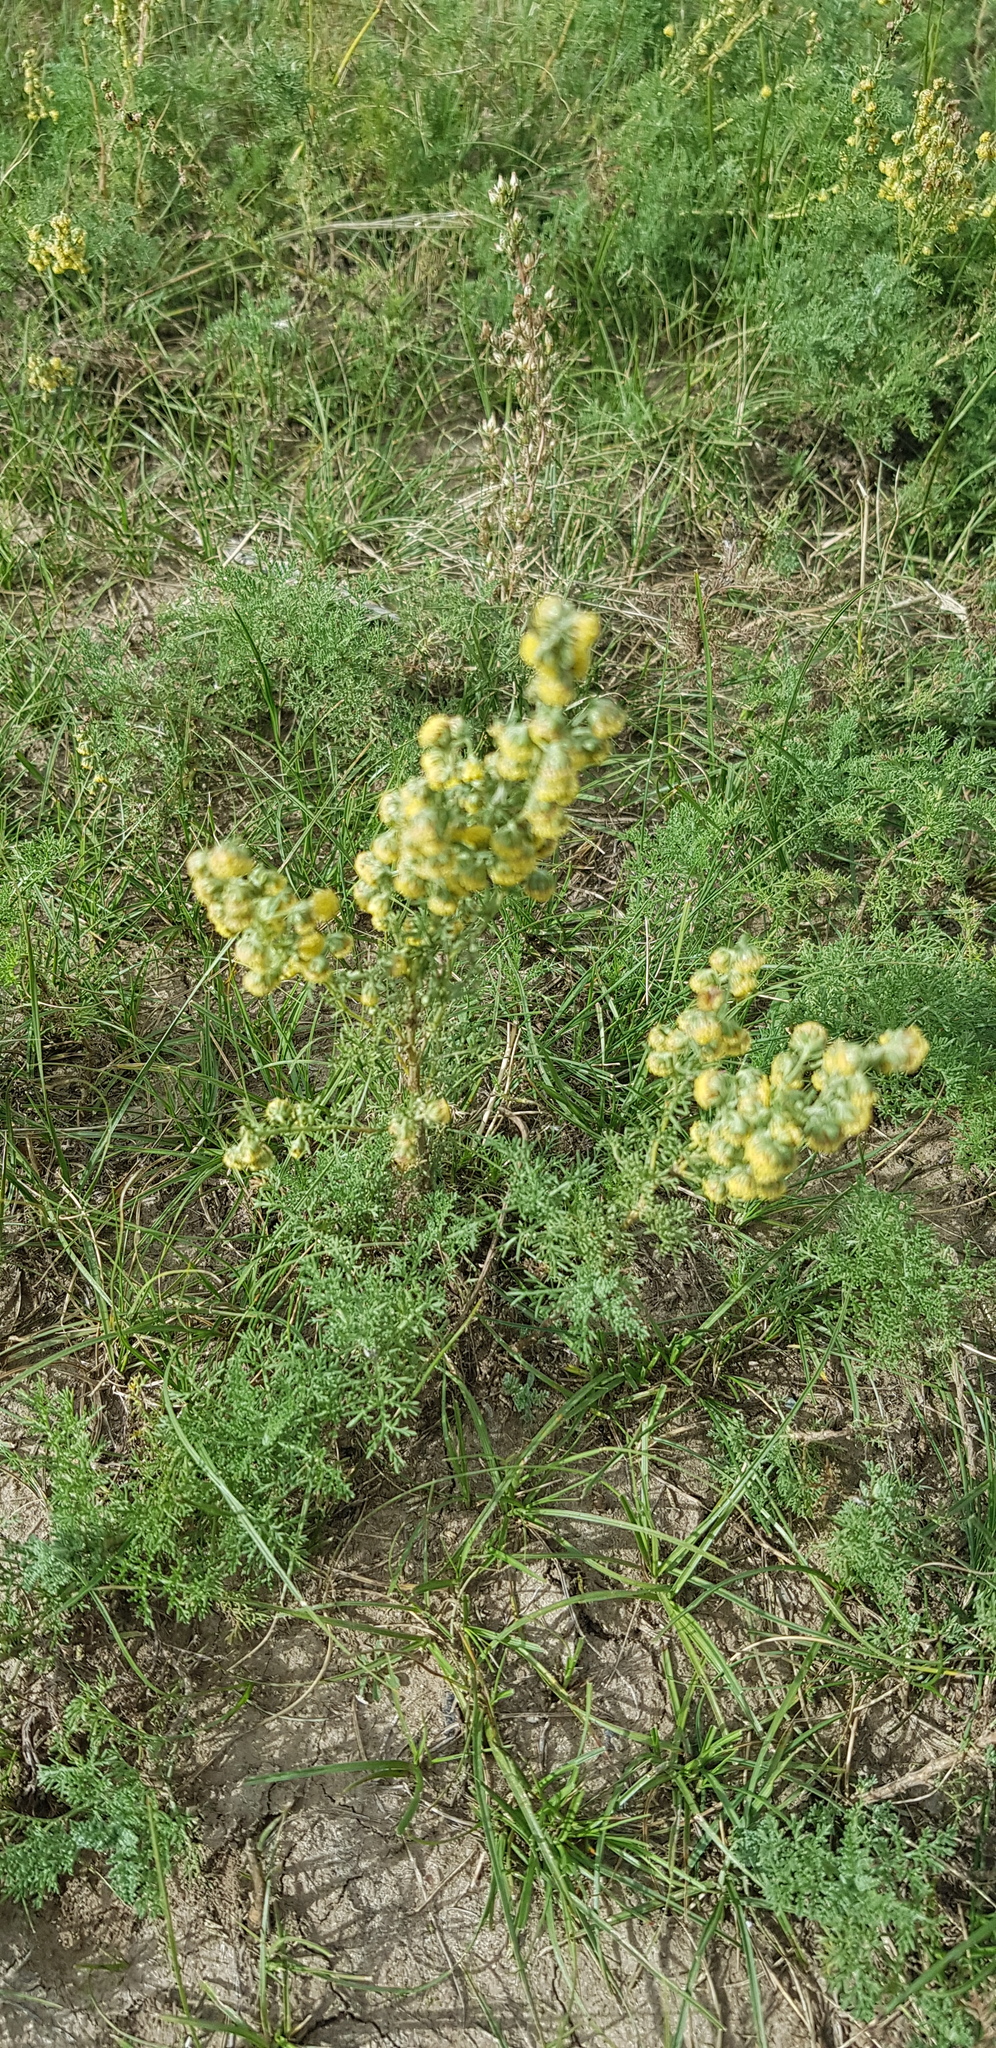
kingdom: Plantae
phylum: Tracheophyta
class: Magnoliopsida
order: Asterales
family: Asteraceae
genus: Artemisia
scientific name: Artemisia adamsii
